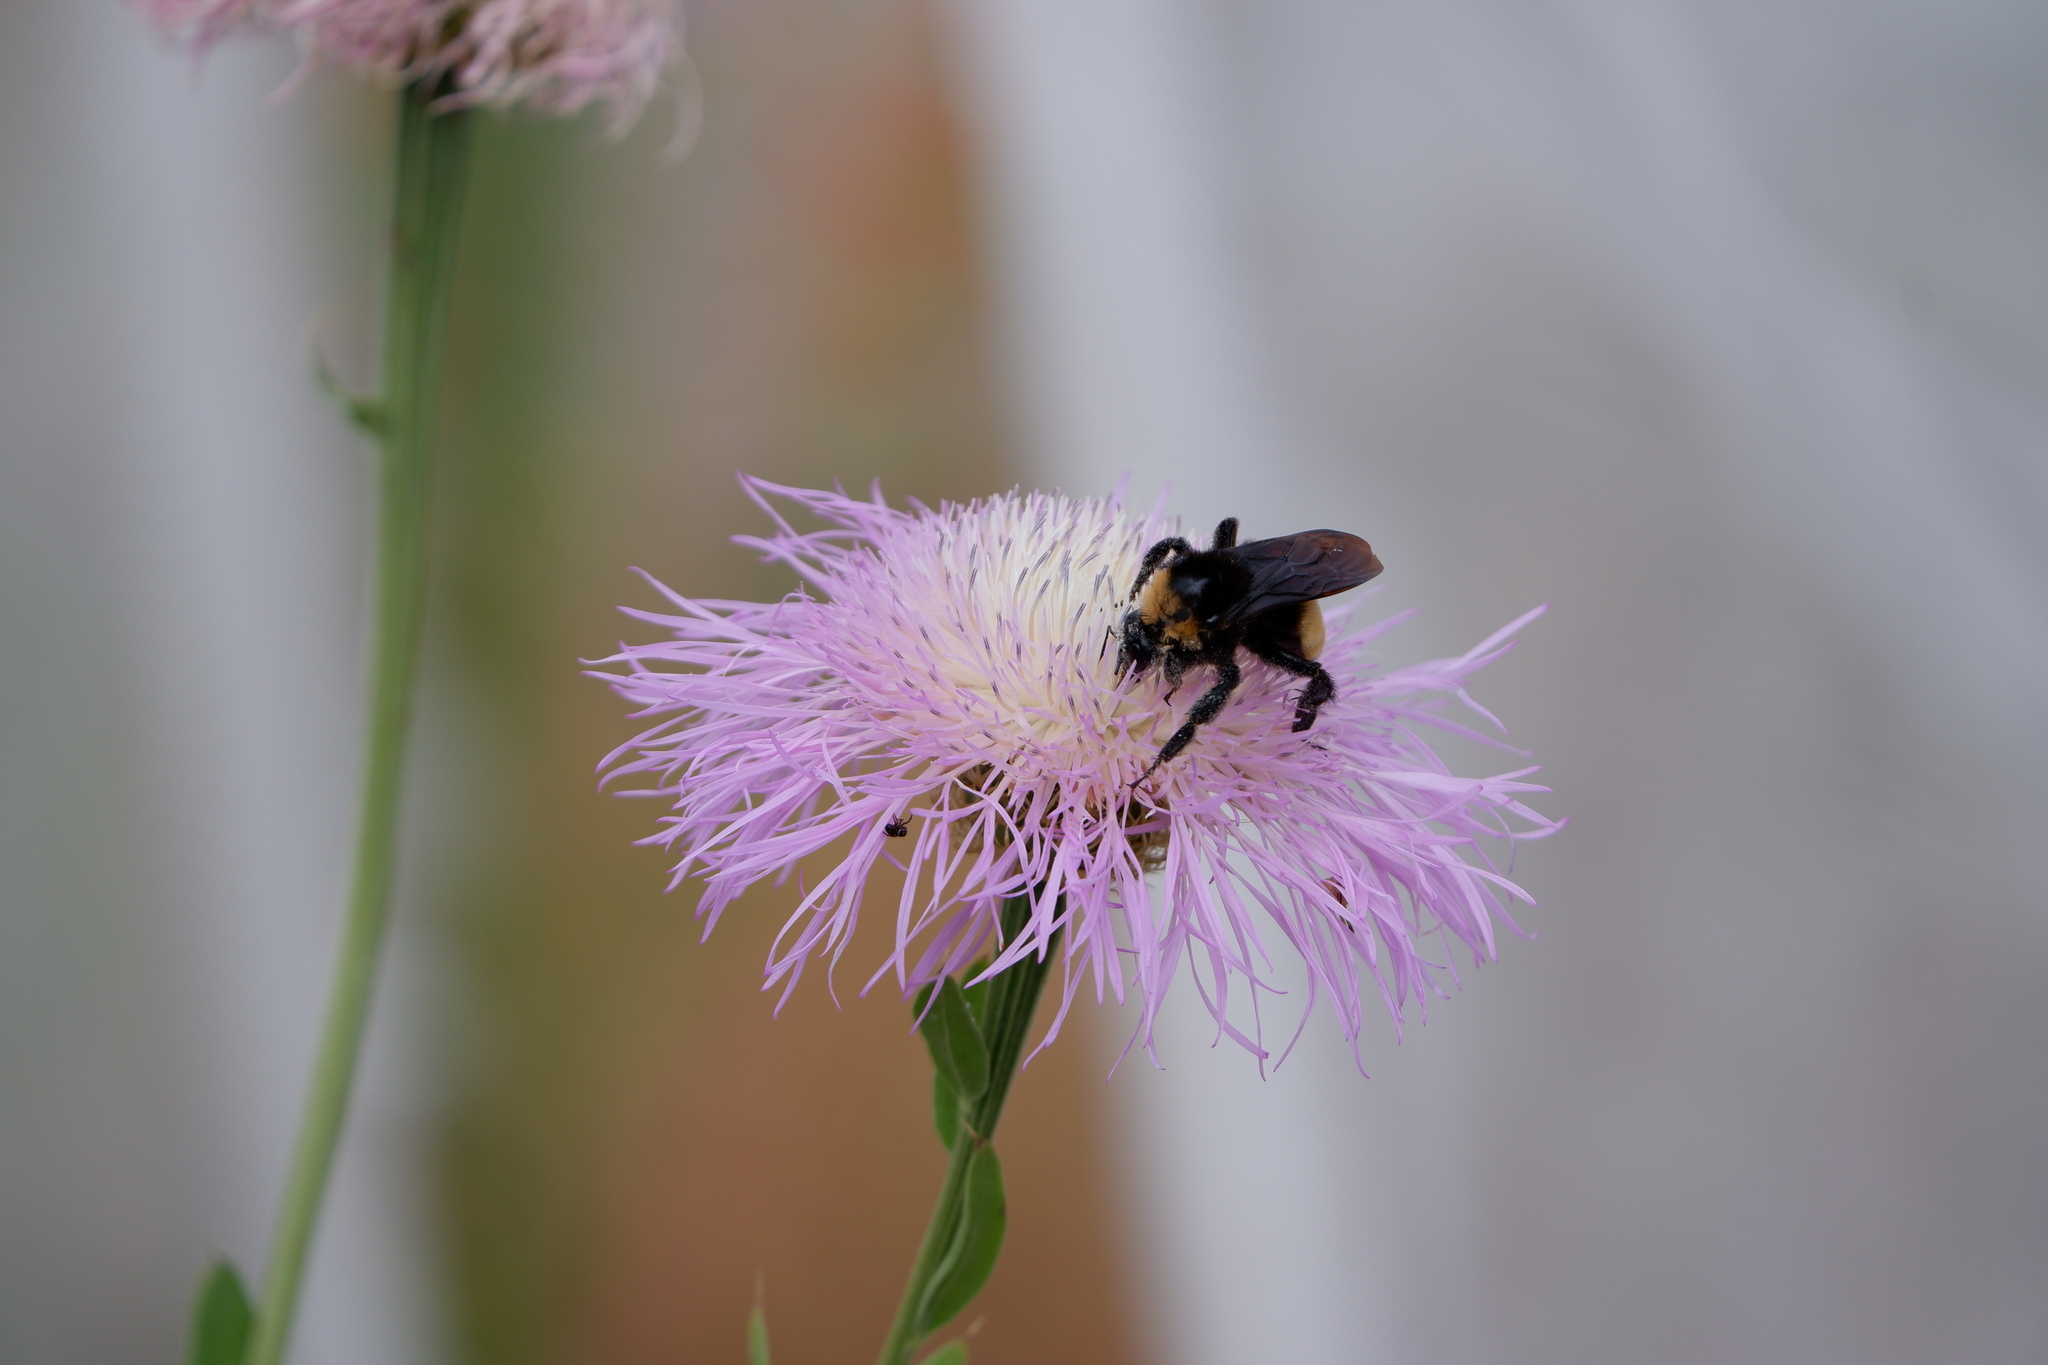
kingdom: Animalia
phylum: Arthropoda
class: Insecta
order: Hymenoptera
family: Apidae
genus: Bombus
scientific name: Bombus pensylvanicus
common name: Bumble bee
